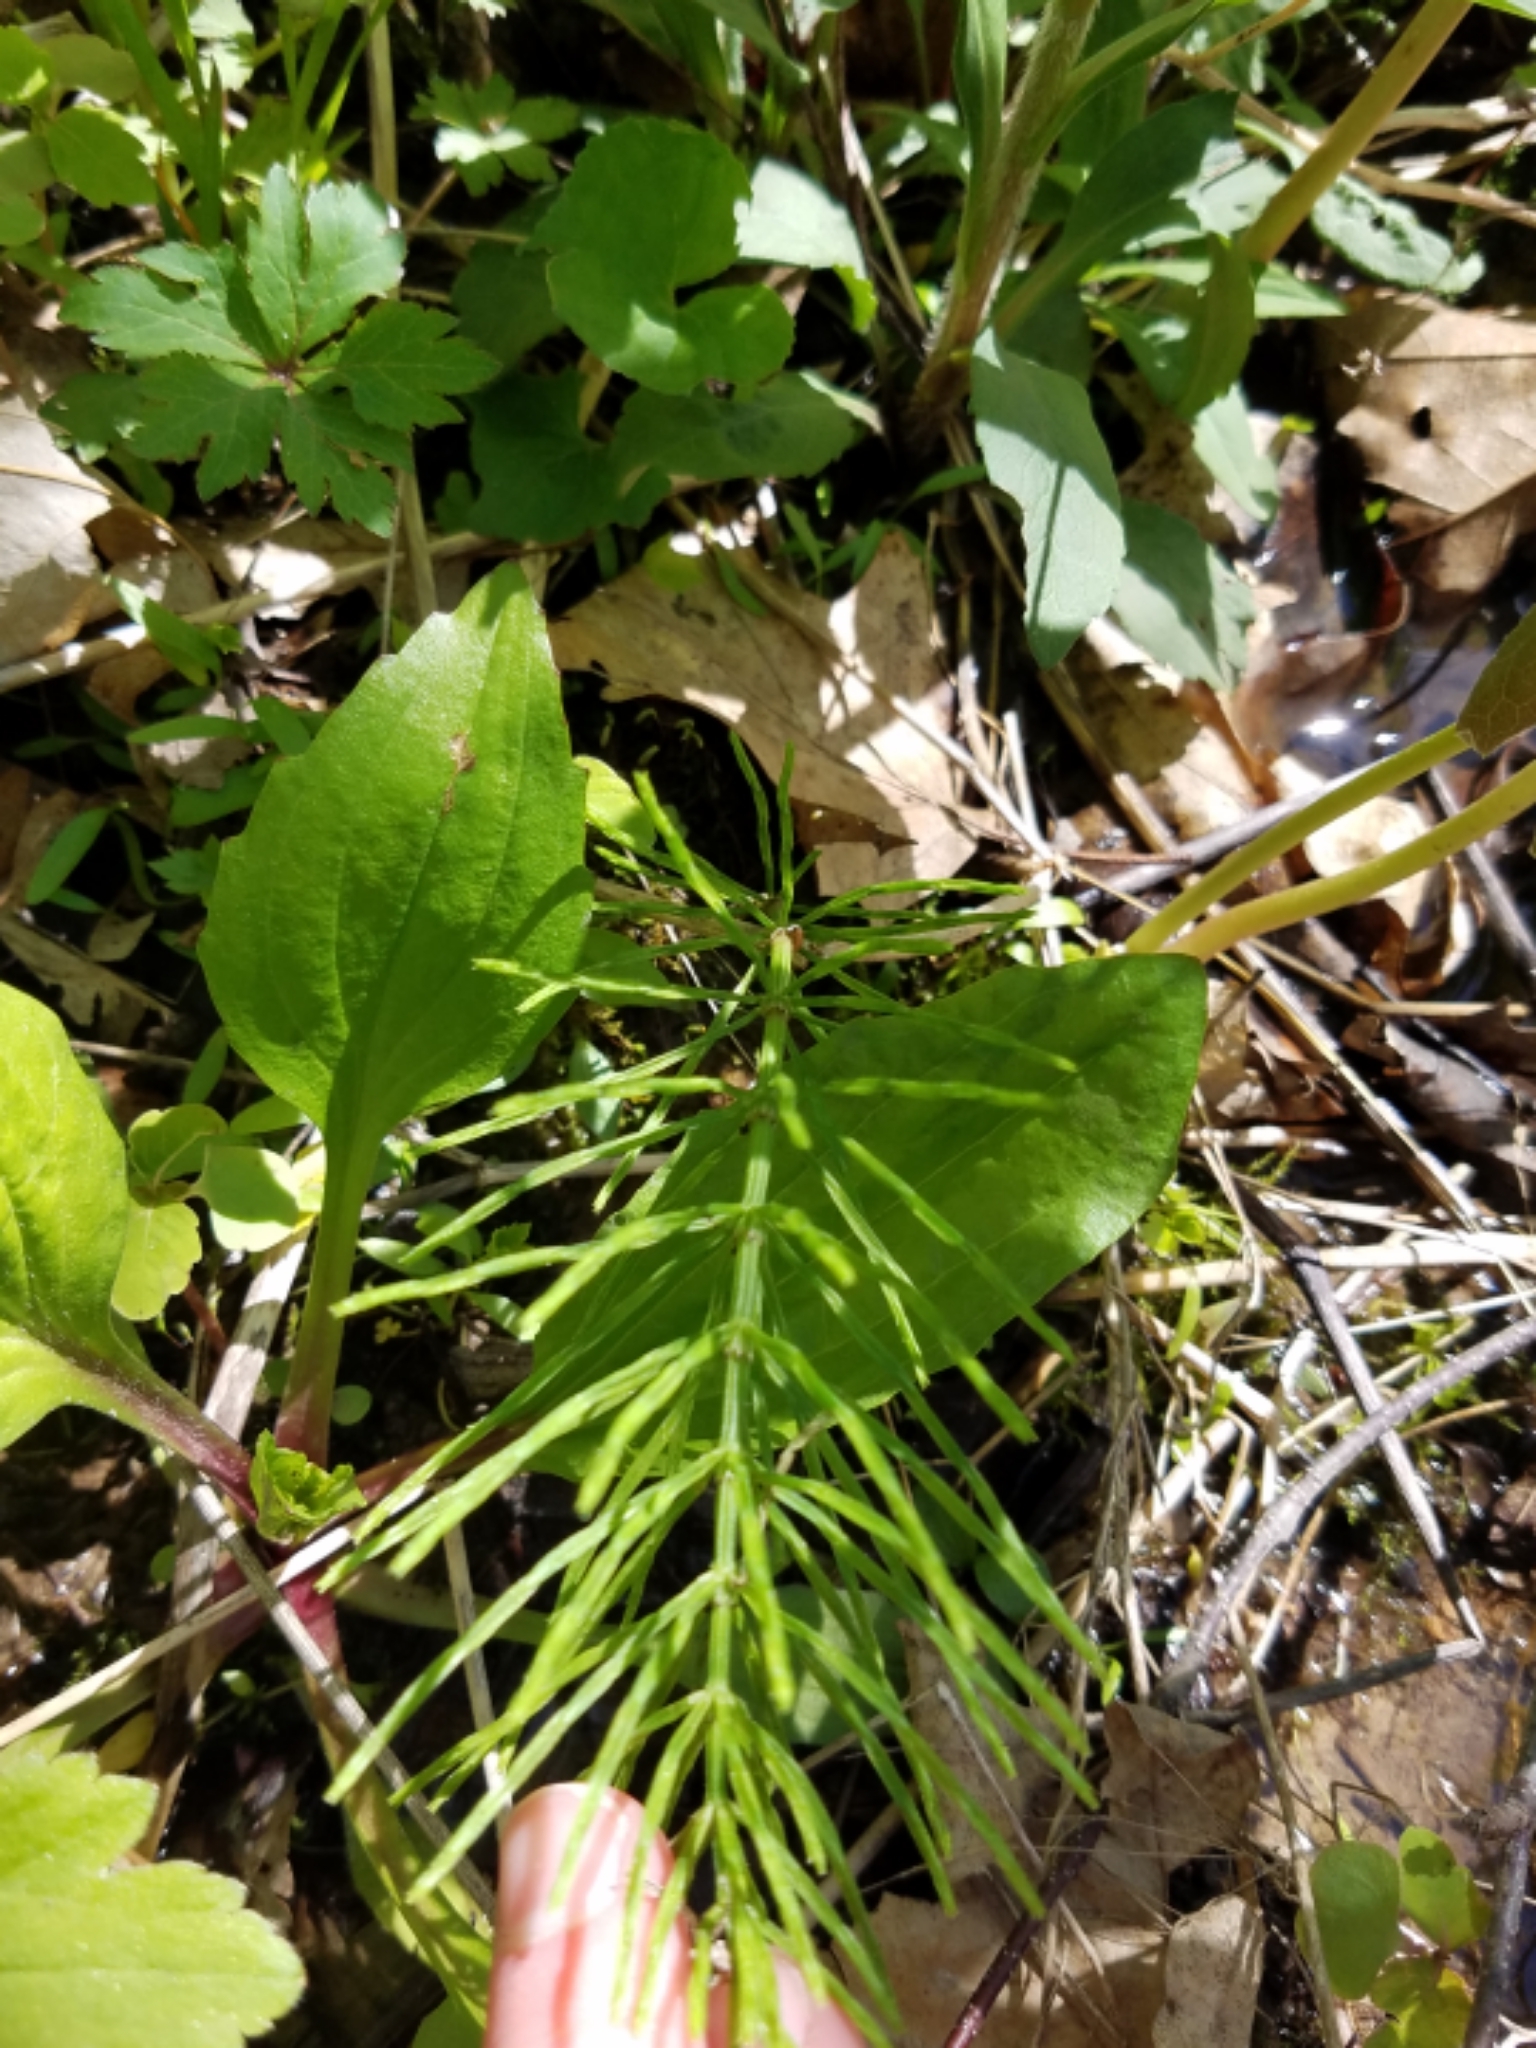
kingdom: Plantae
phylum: Tracheophyta
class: Polypodiopsida
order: Equisetales
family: Equisetaceae
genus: Equisetum
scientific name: Equisetum arvense
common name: Field horsetail
